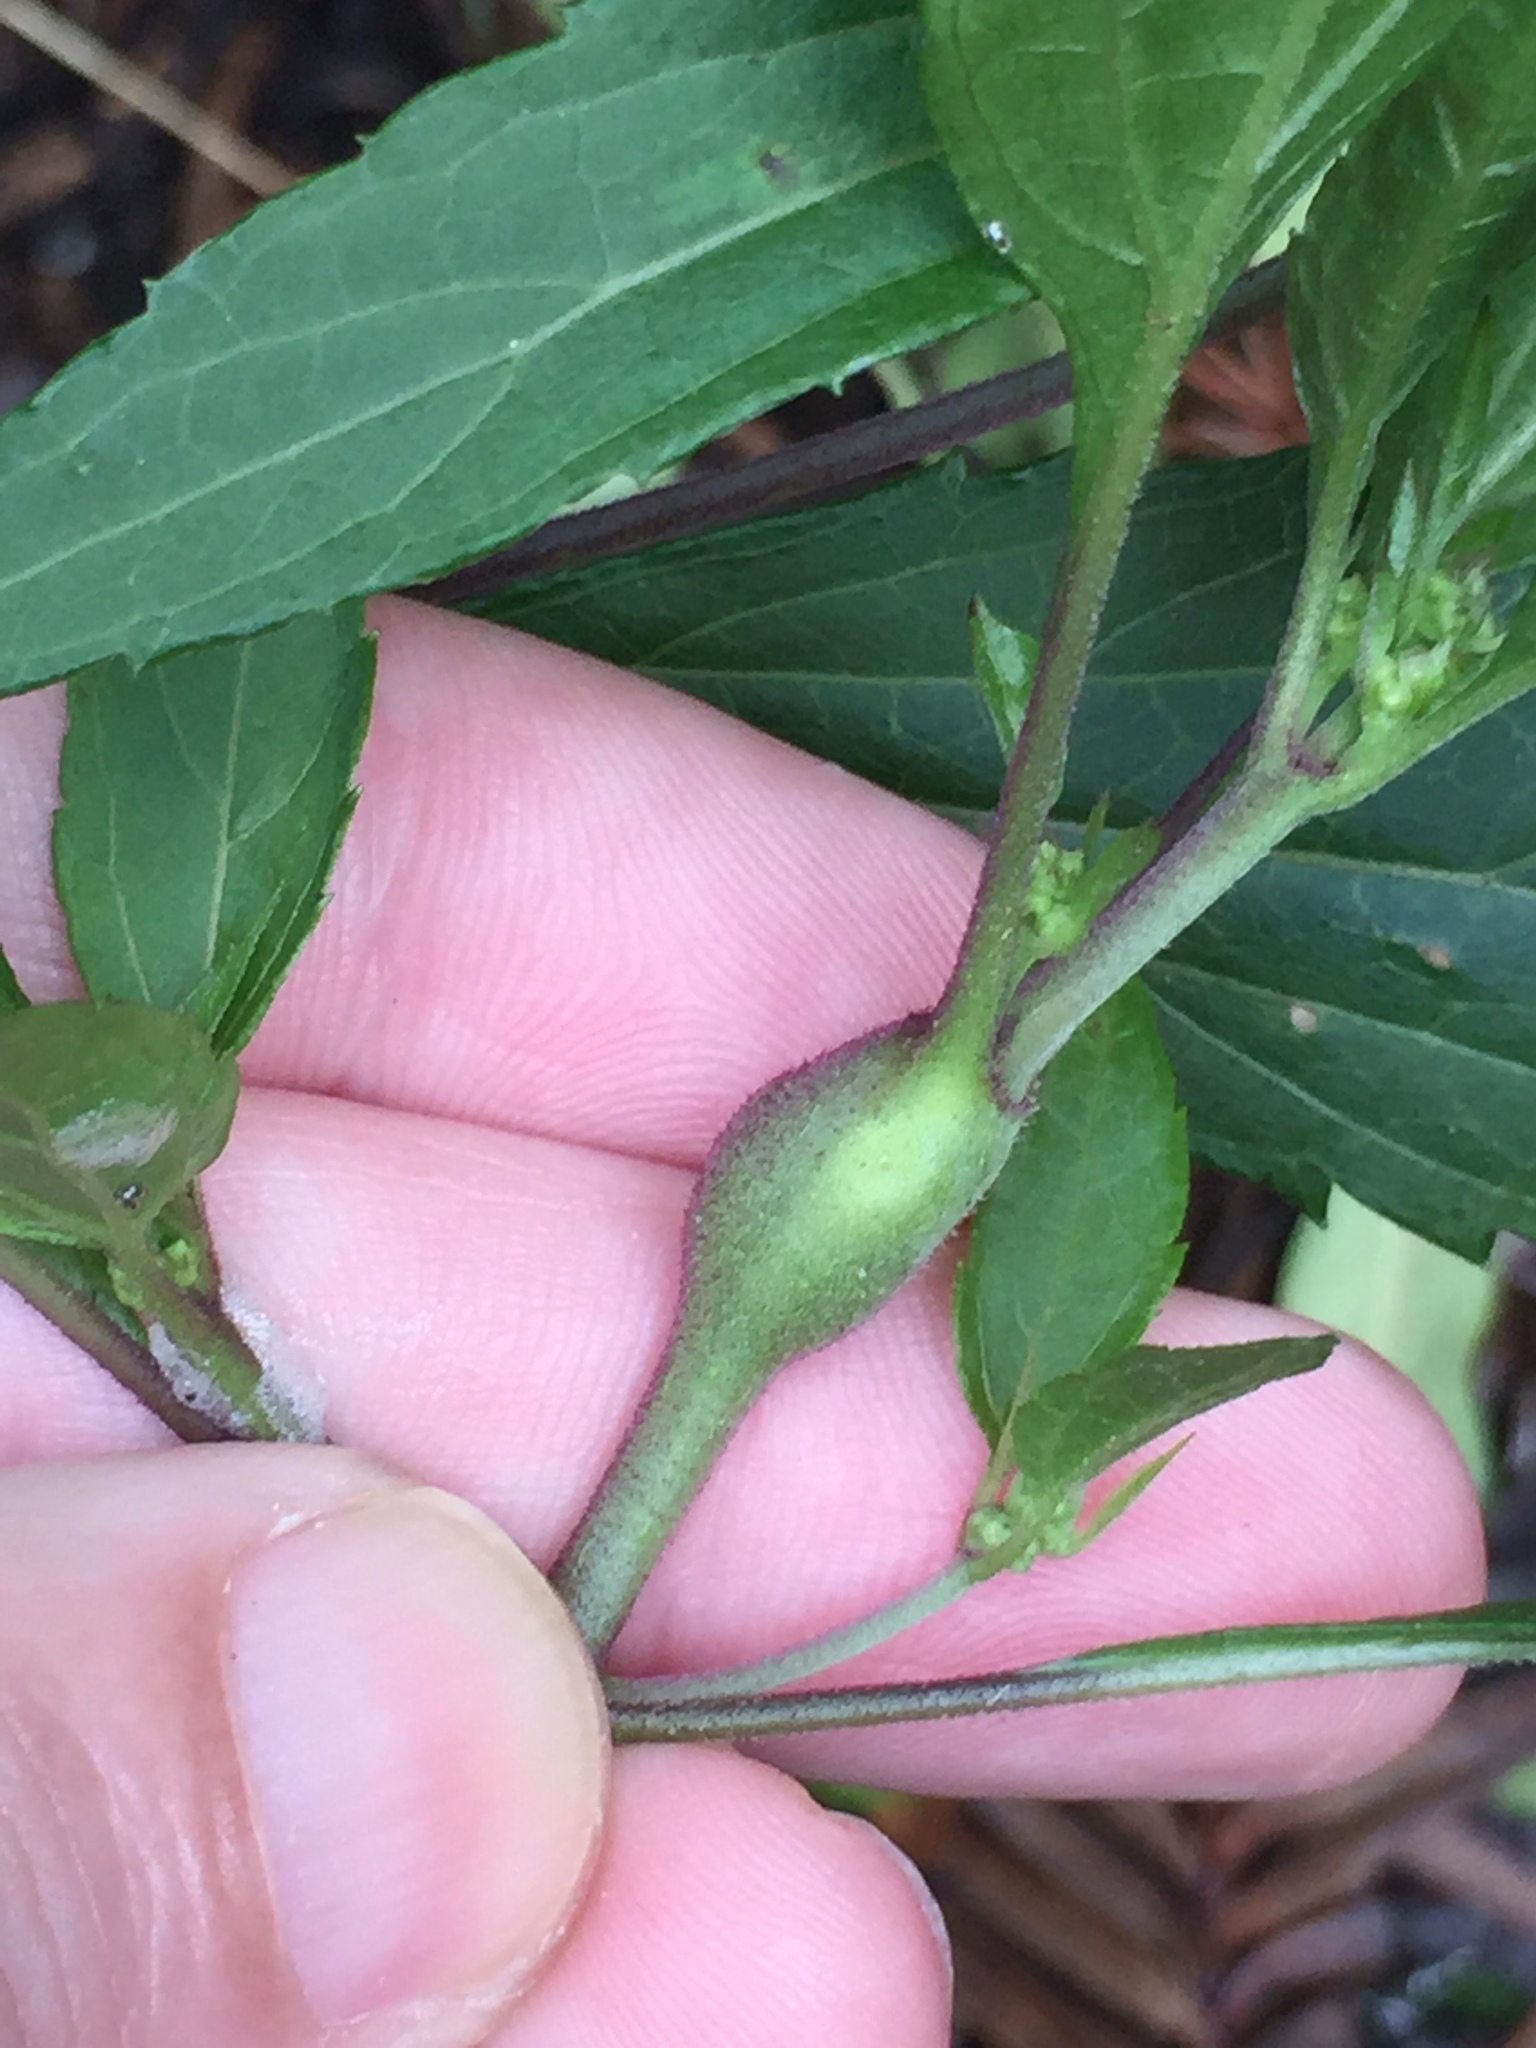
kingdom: Animalia
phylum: Arthropoda
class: Insecta
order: Diptera
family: Tephritidae
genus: Procecidochares
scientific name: Procecidochares alani
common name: Fruit fly
